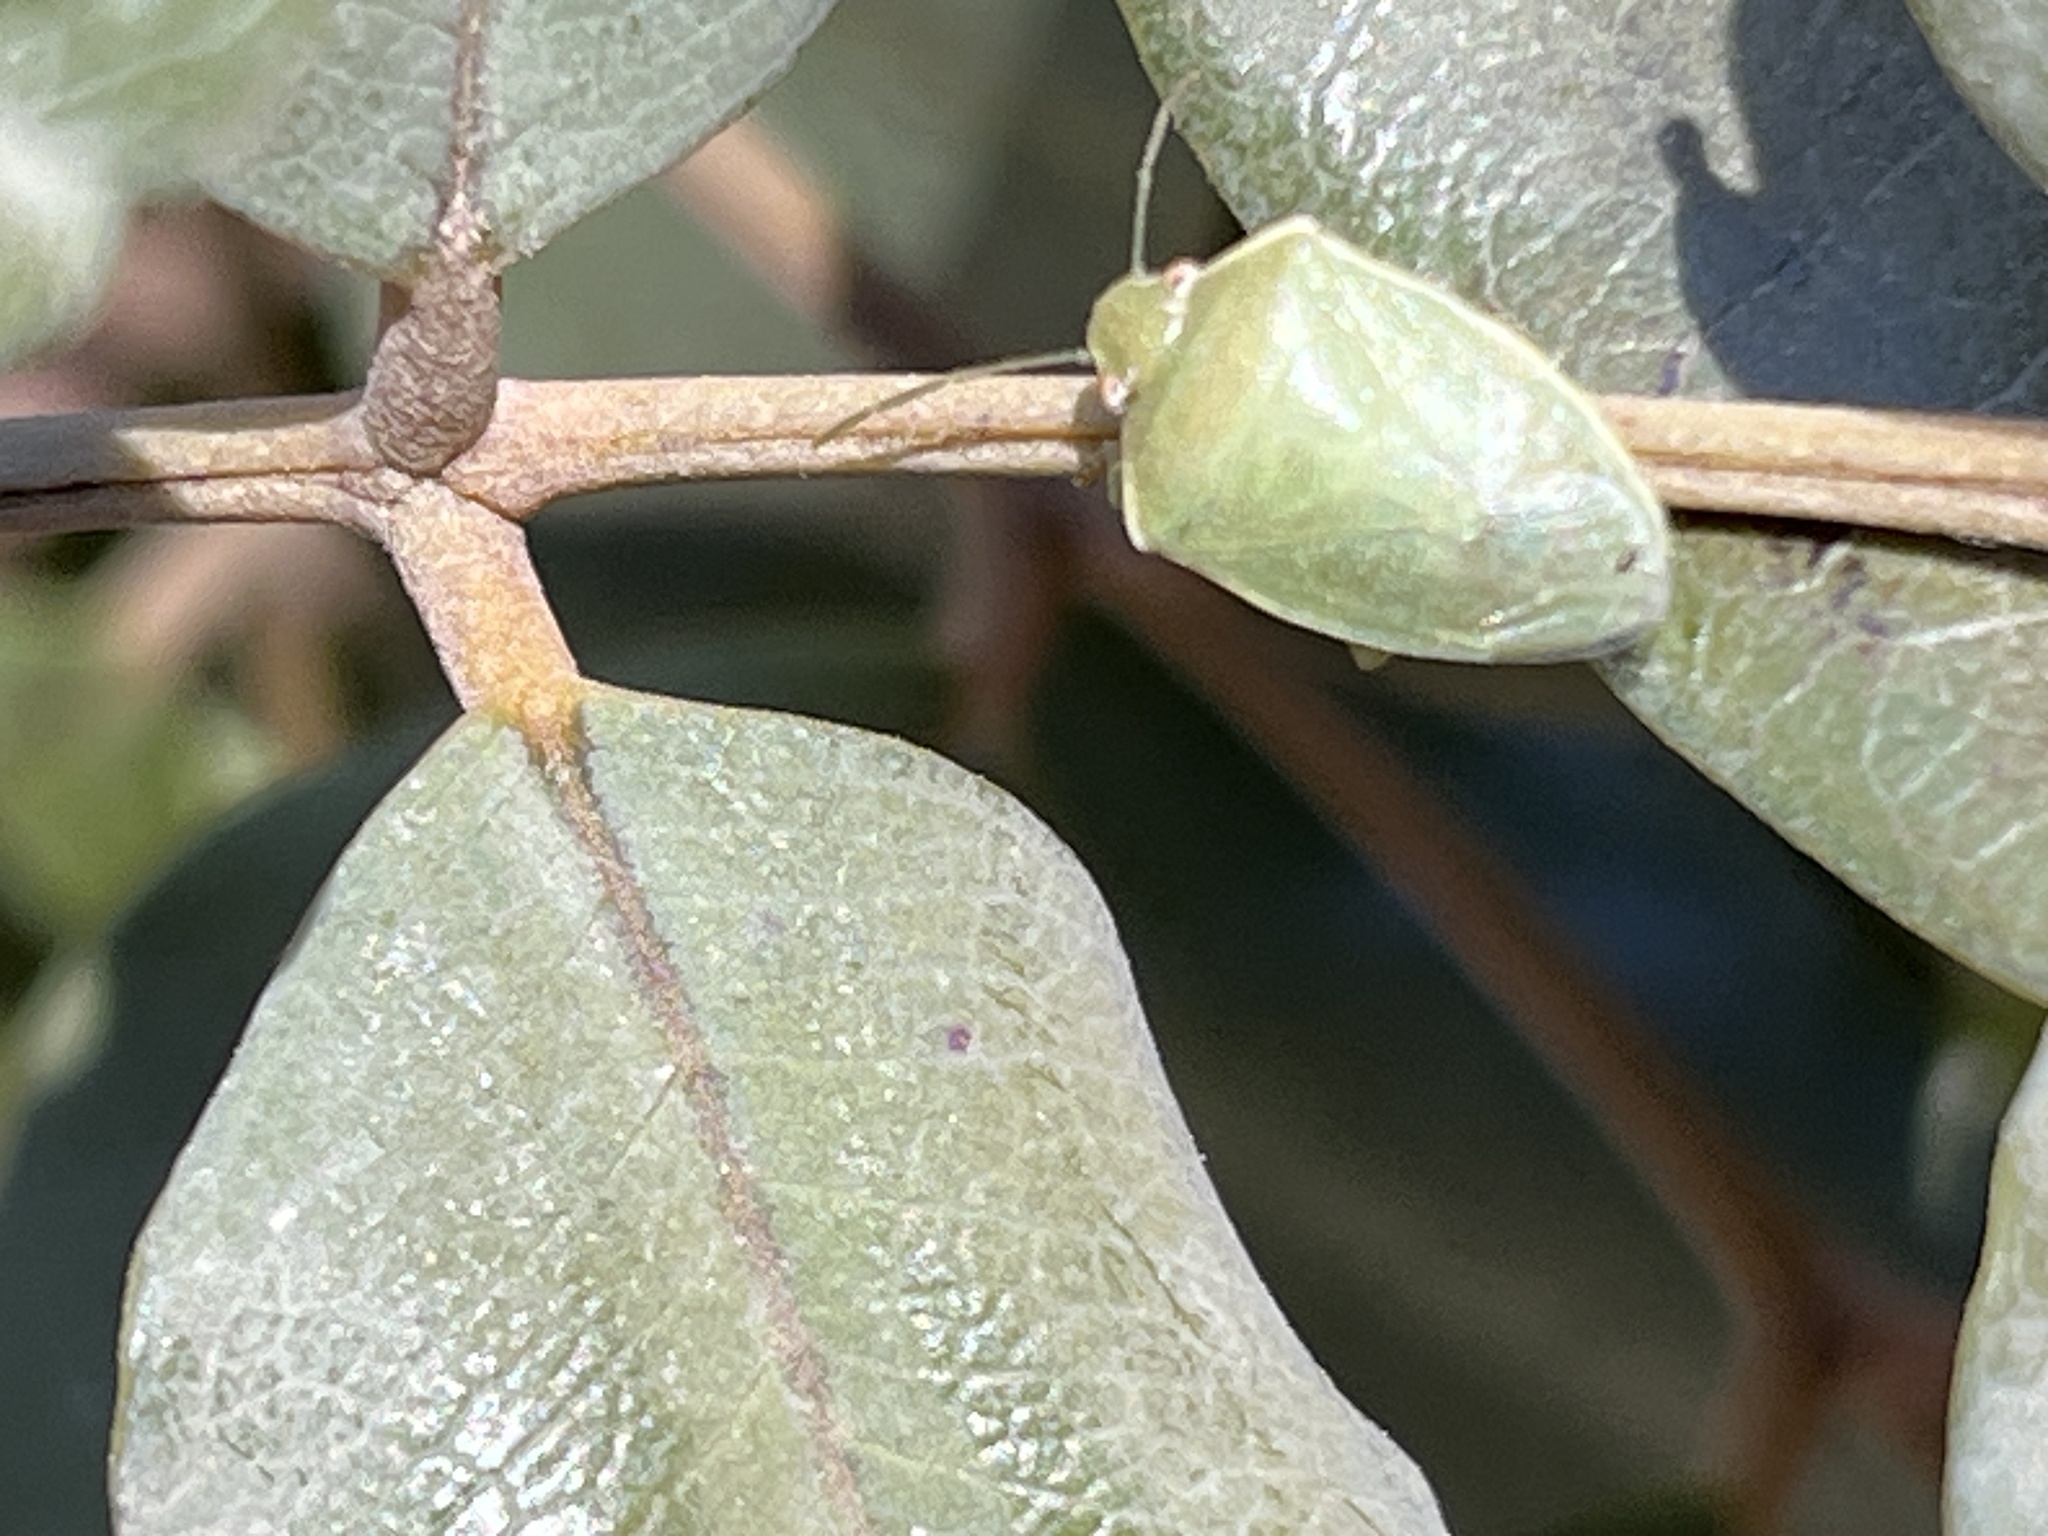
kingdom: Animalia
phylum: Arthropoda
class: Insecta
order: Hemiptera
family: Pentatomidae
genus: Acrosternum
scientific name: Acrosternum millierei
